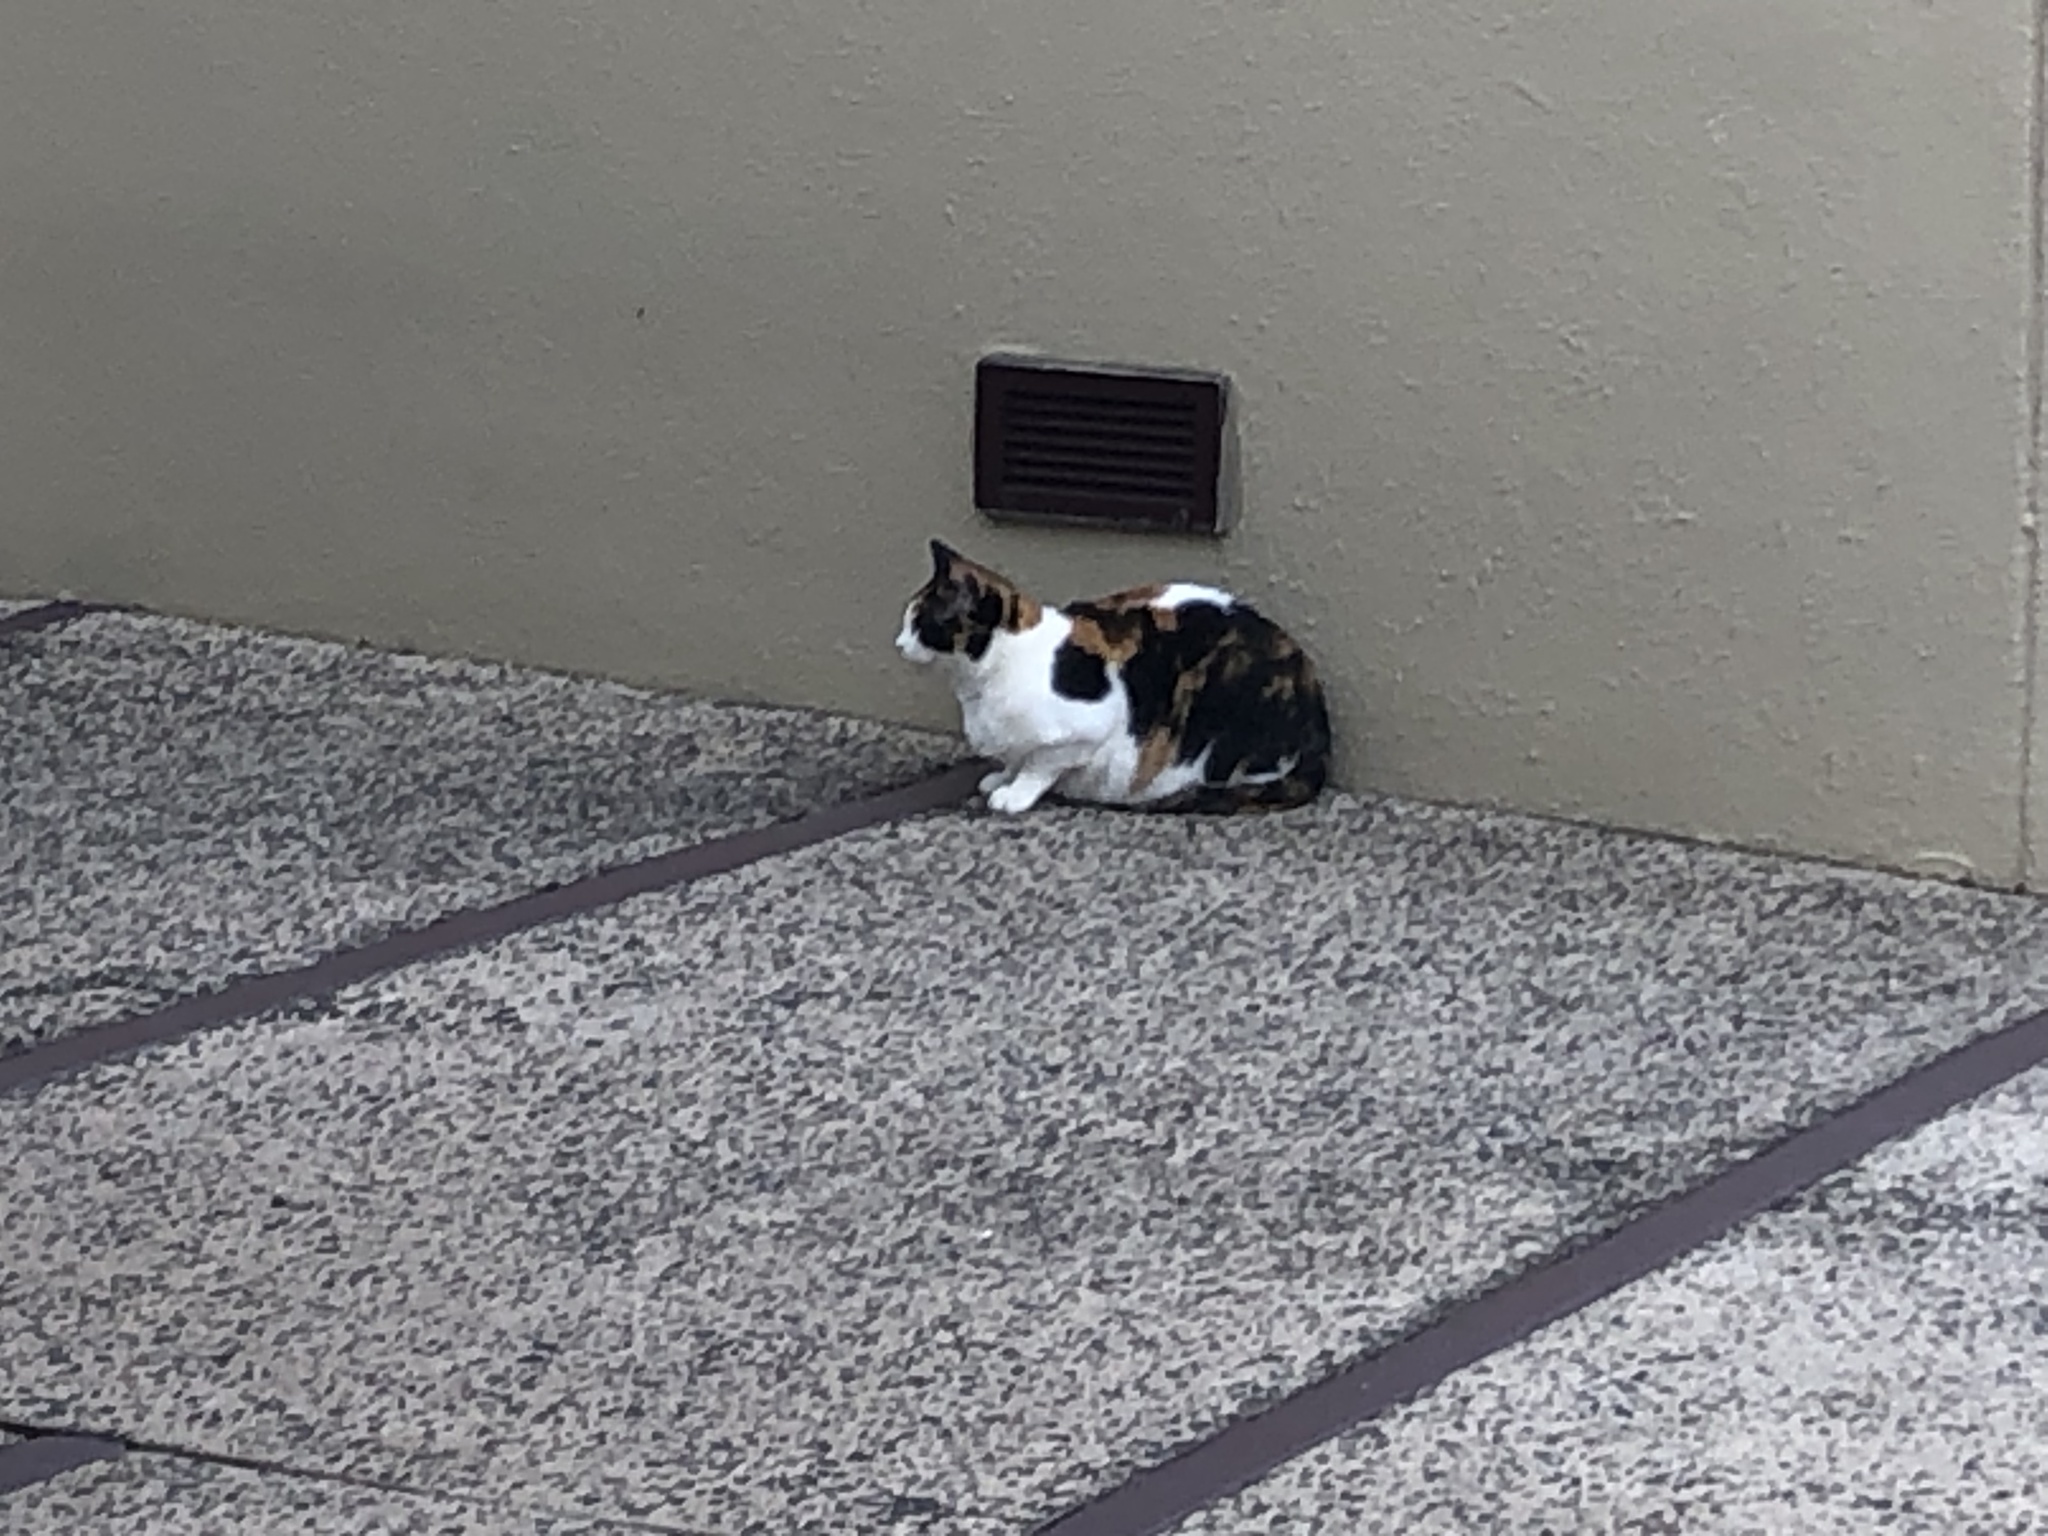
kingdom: Animalia
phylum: Chordata
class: Mammalia
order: Carnivora
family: Felidae
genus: Felis
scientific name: Felis catus
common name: Domestic cat
